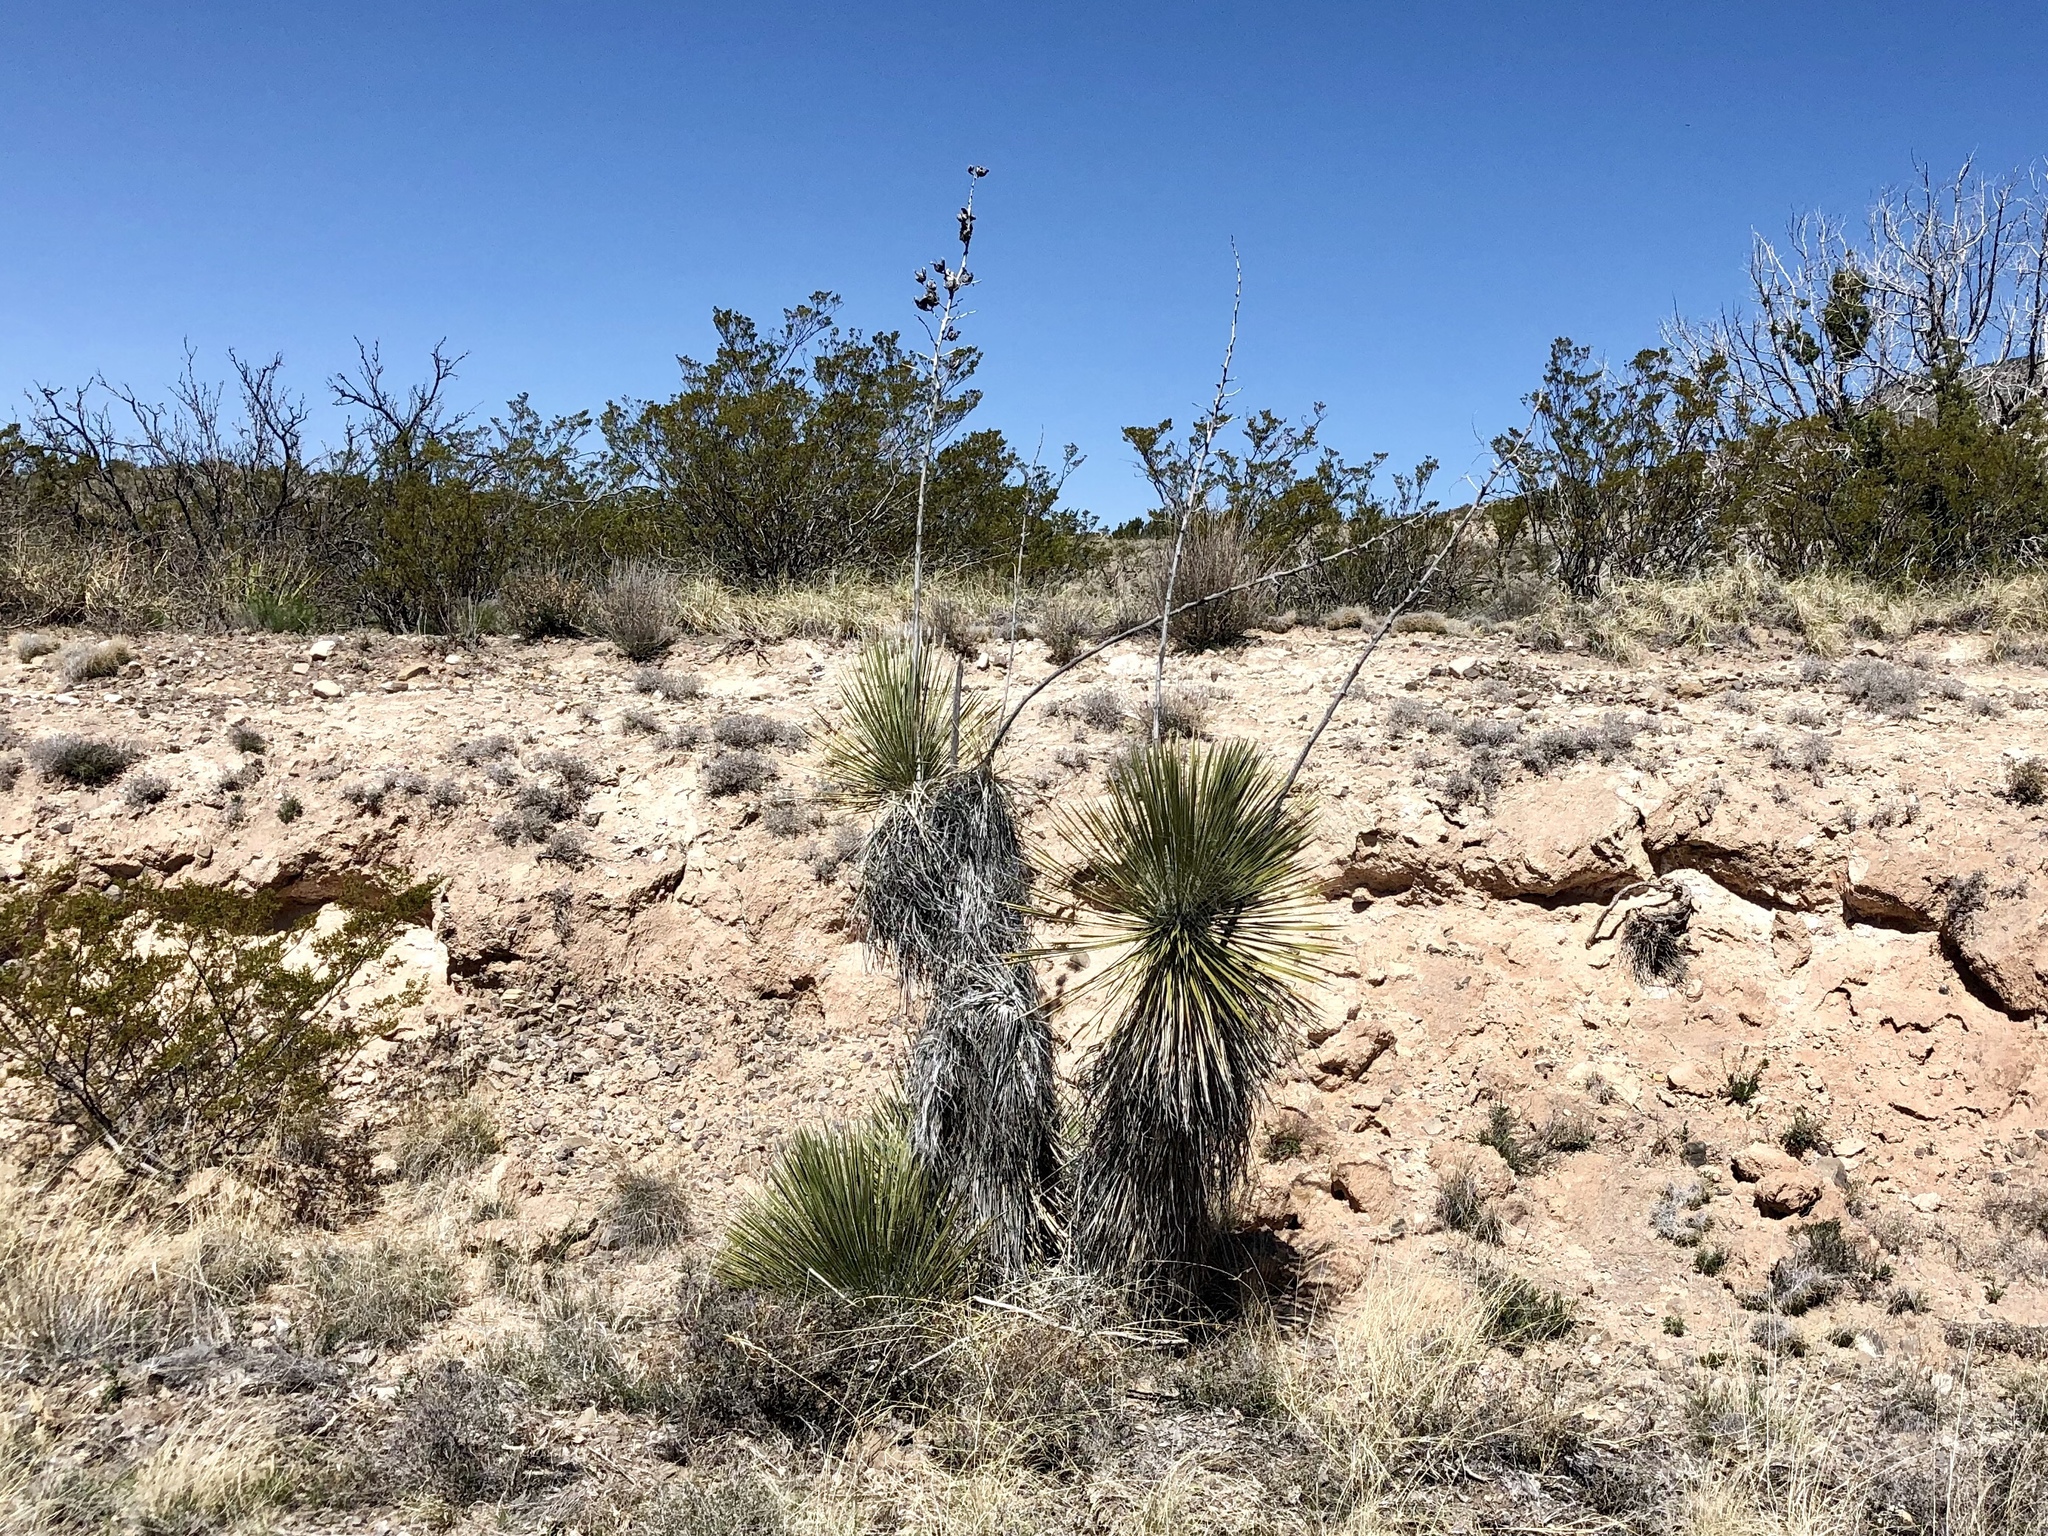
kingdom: Plantae
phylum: Tracheophyta
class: Liliopsida
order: Asparagales
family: Asparagaceae
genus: Yucca
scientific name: Yucca elata
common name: Palmella
